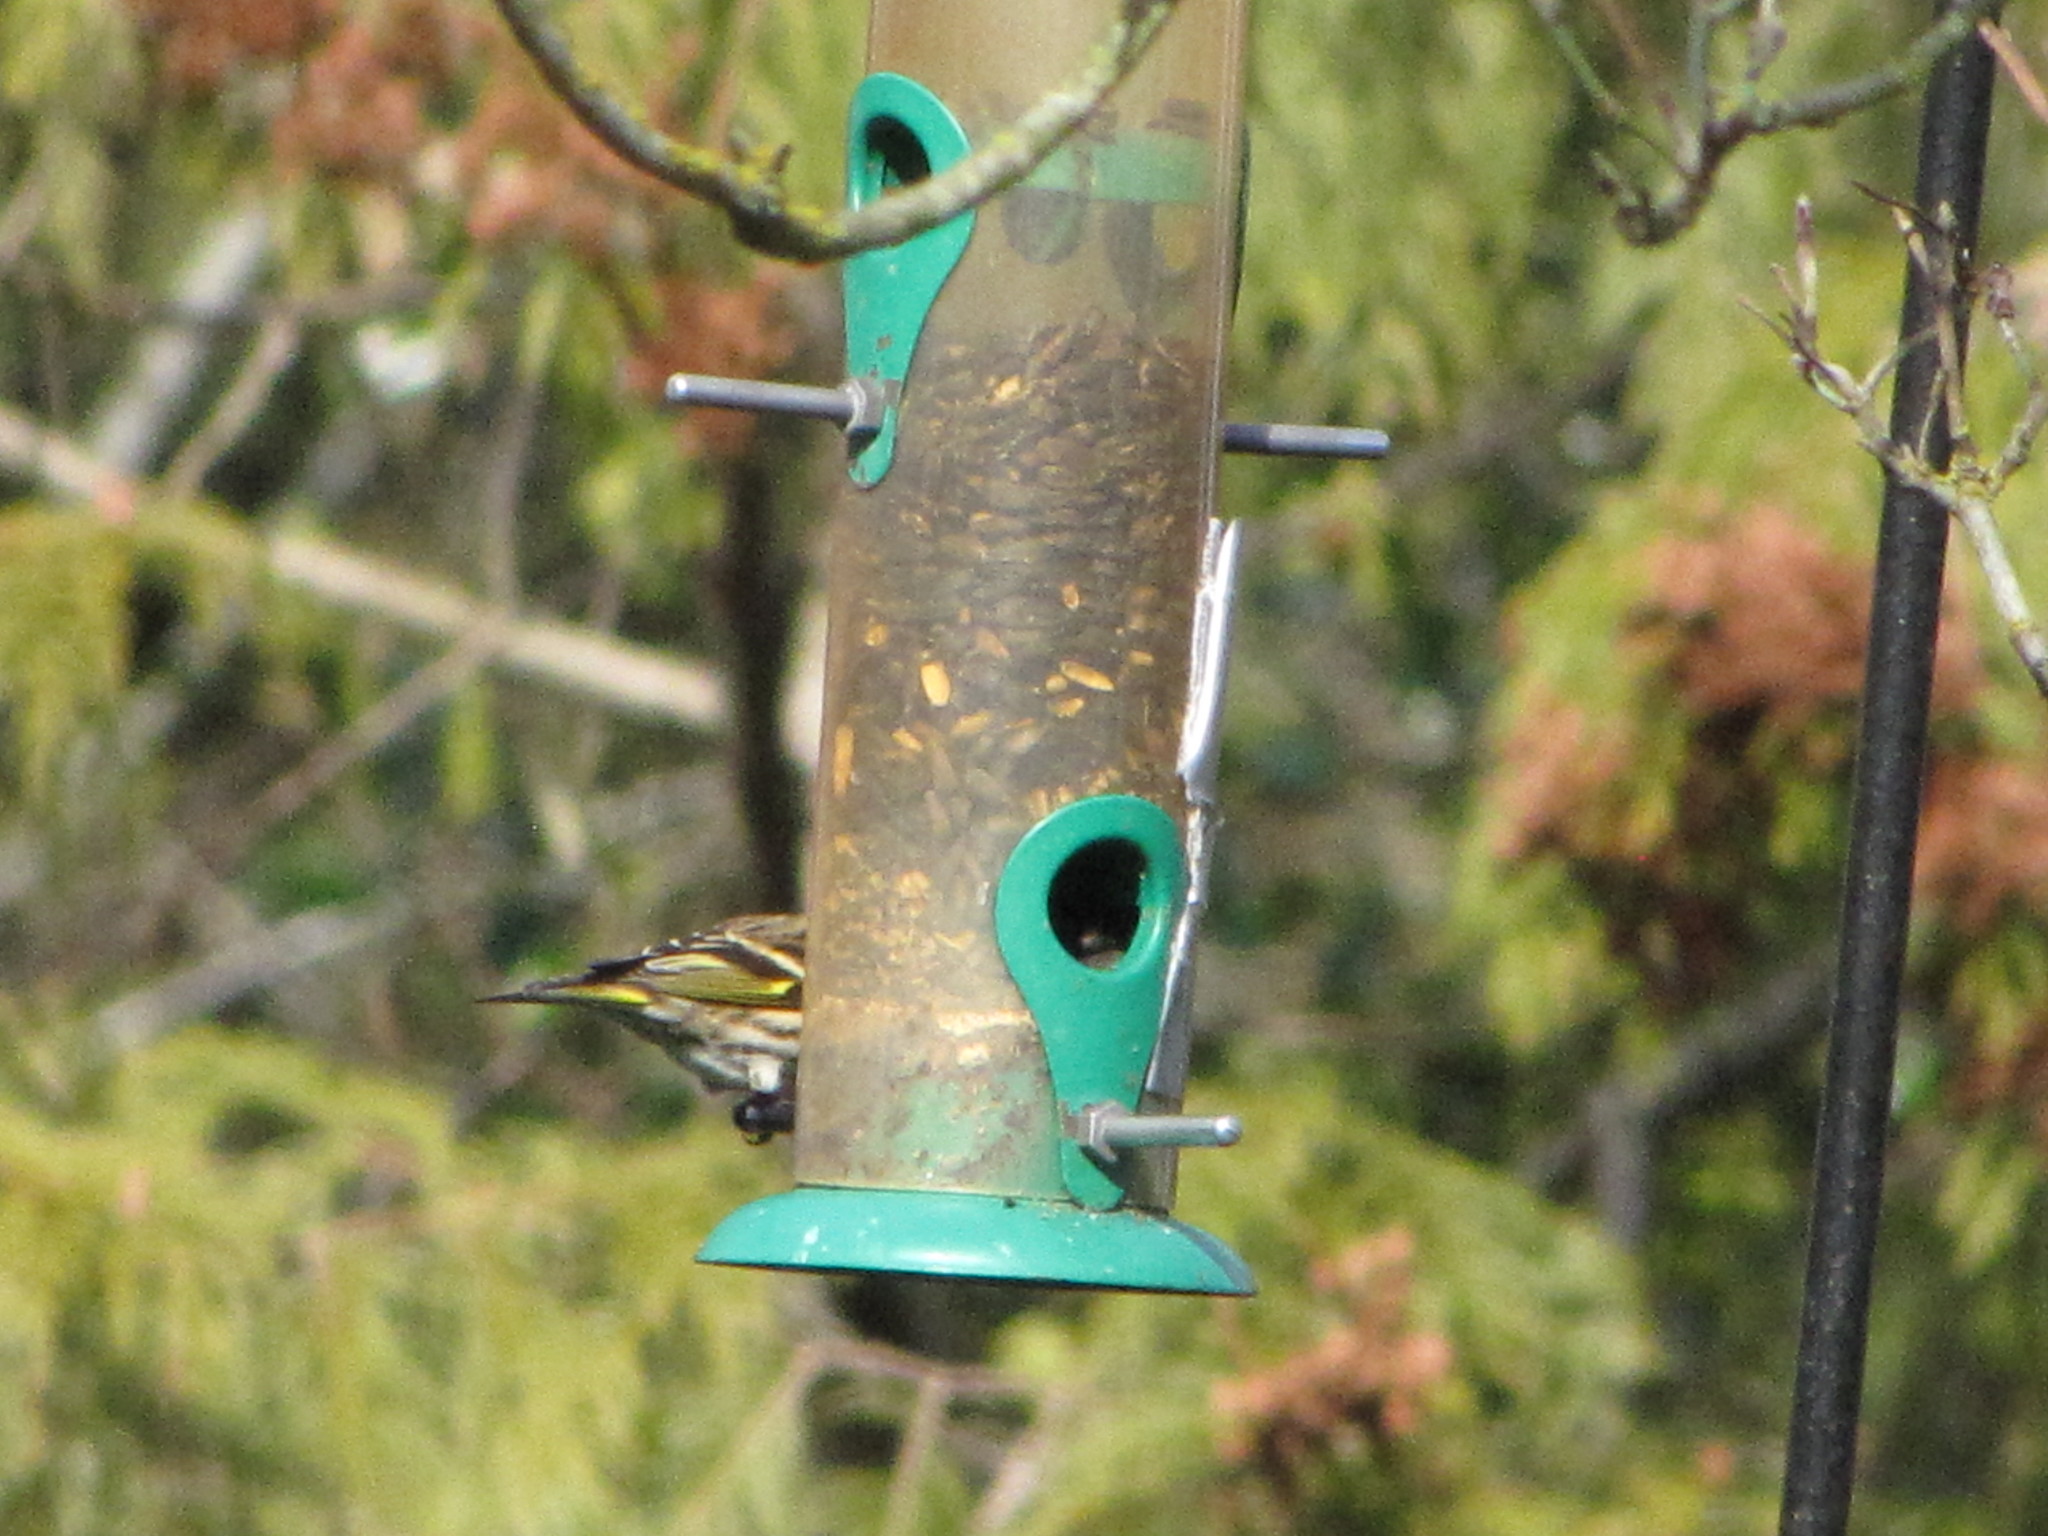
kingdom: Animalia
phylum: Chordata
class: Aves
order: Passeriformes
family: Fringillidae
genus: Spinus
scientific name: Spinus pinus
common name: Pine siskin
